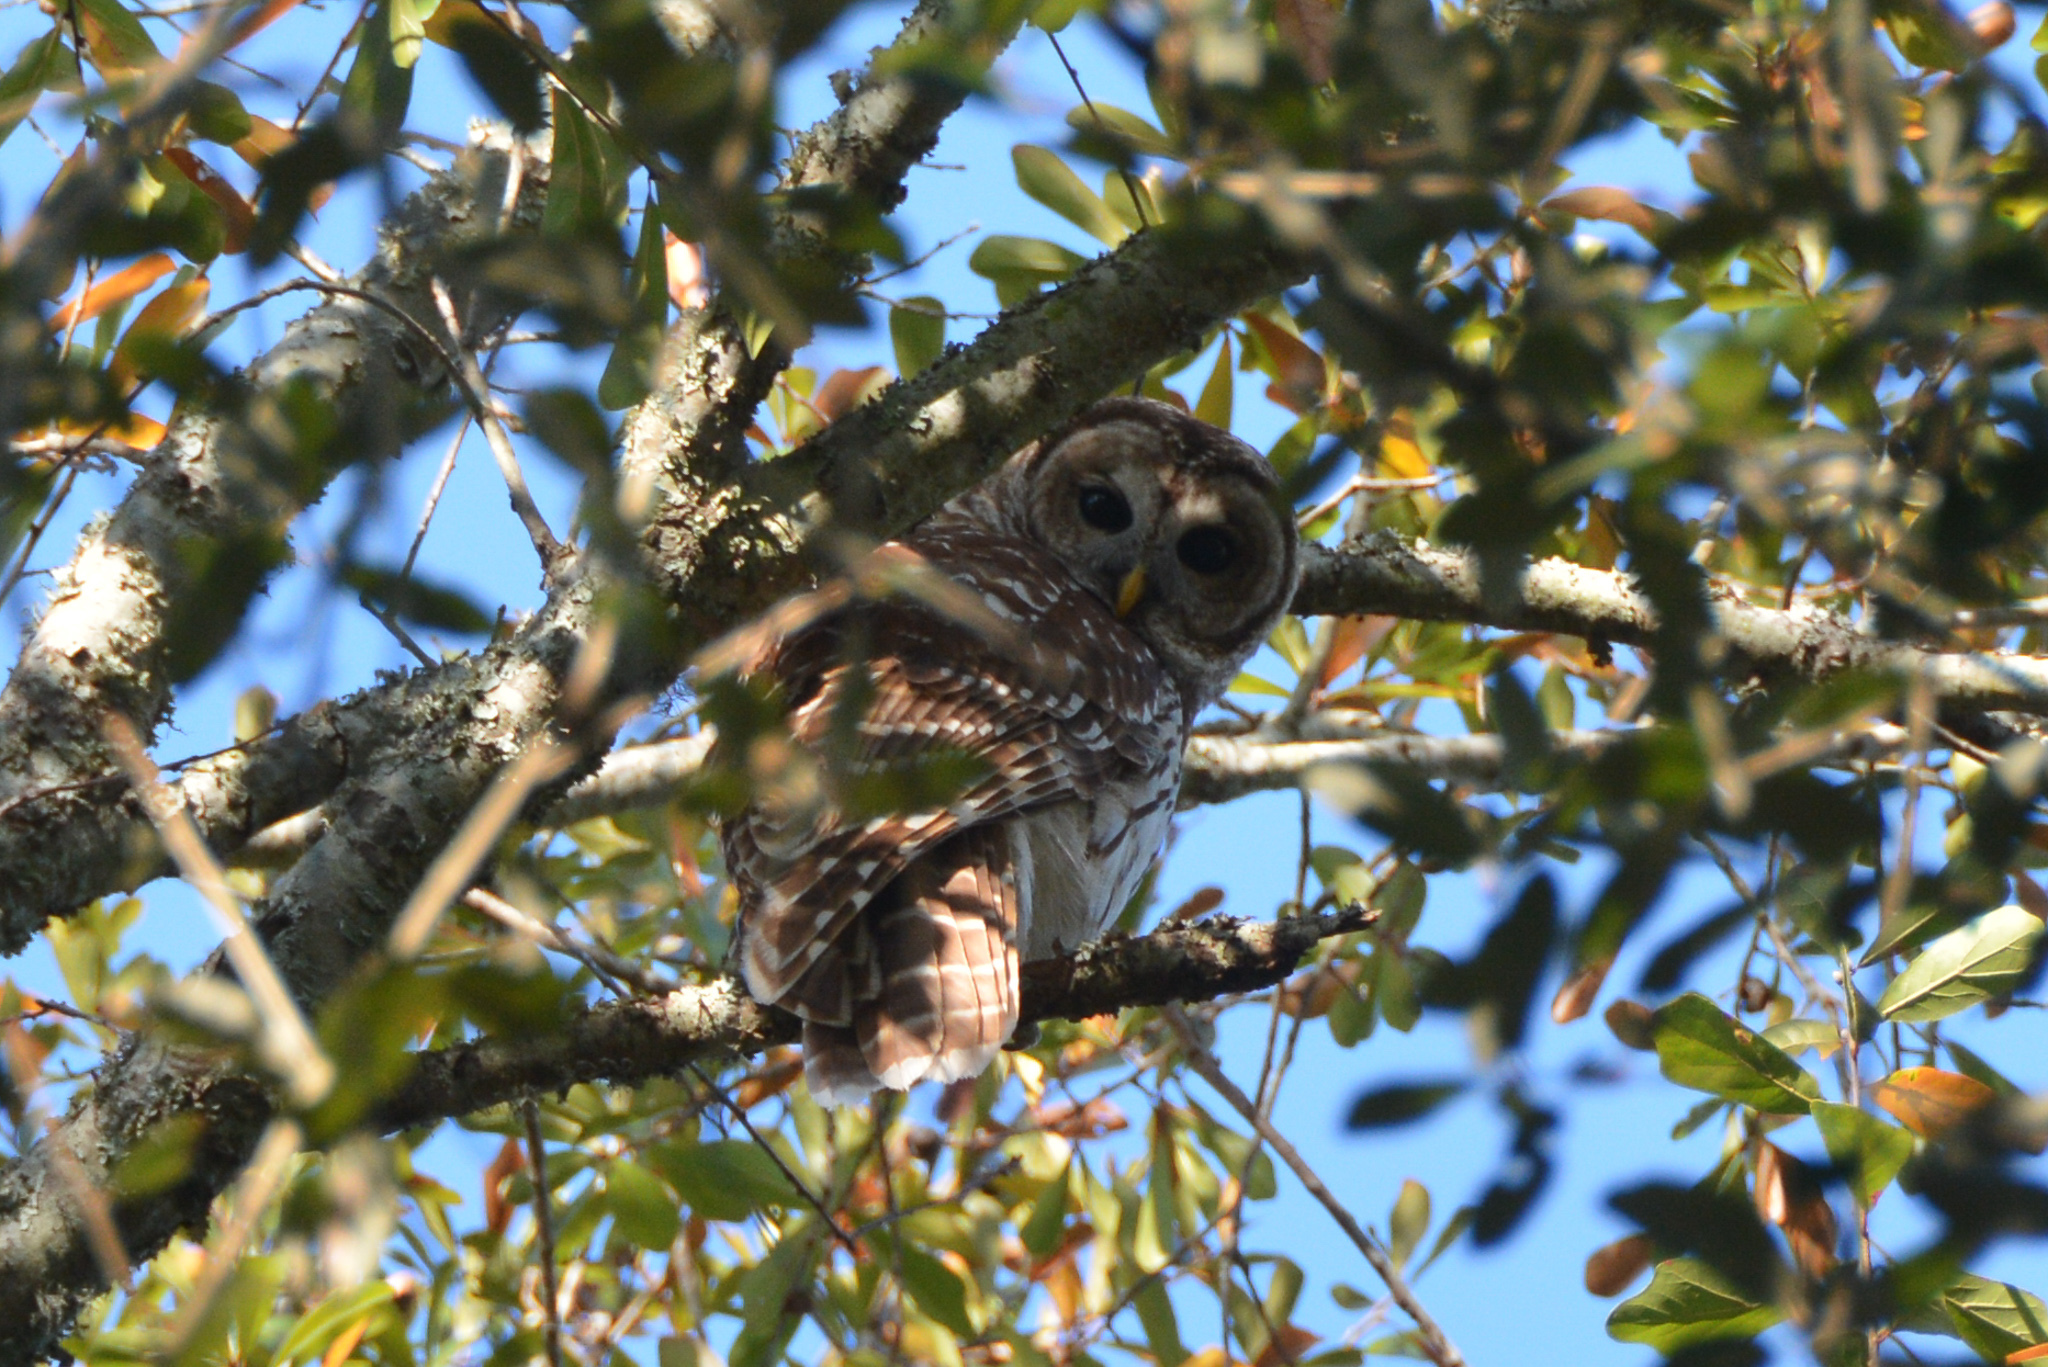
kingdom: Animalia
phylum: Chordata
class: Aves
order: Strigiformes
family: Strigidae
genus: Strix
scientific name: Strix varia
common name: Barred owl
